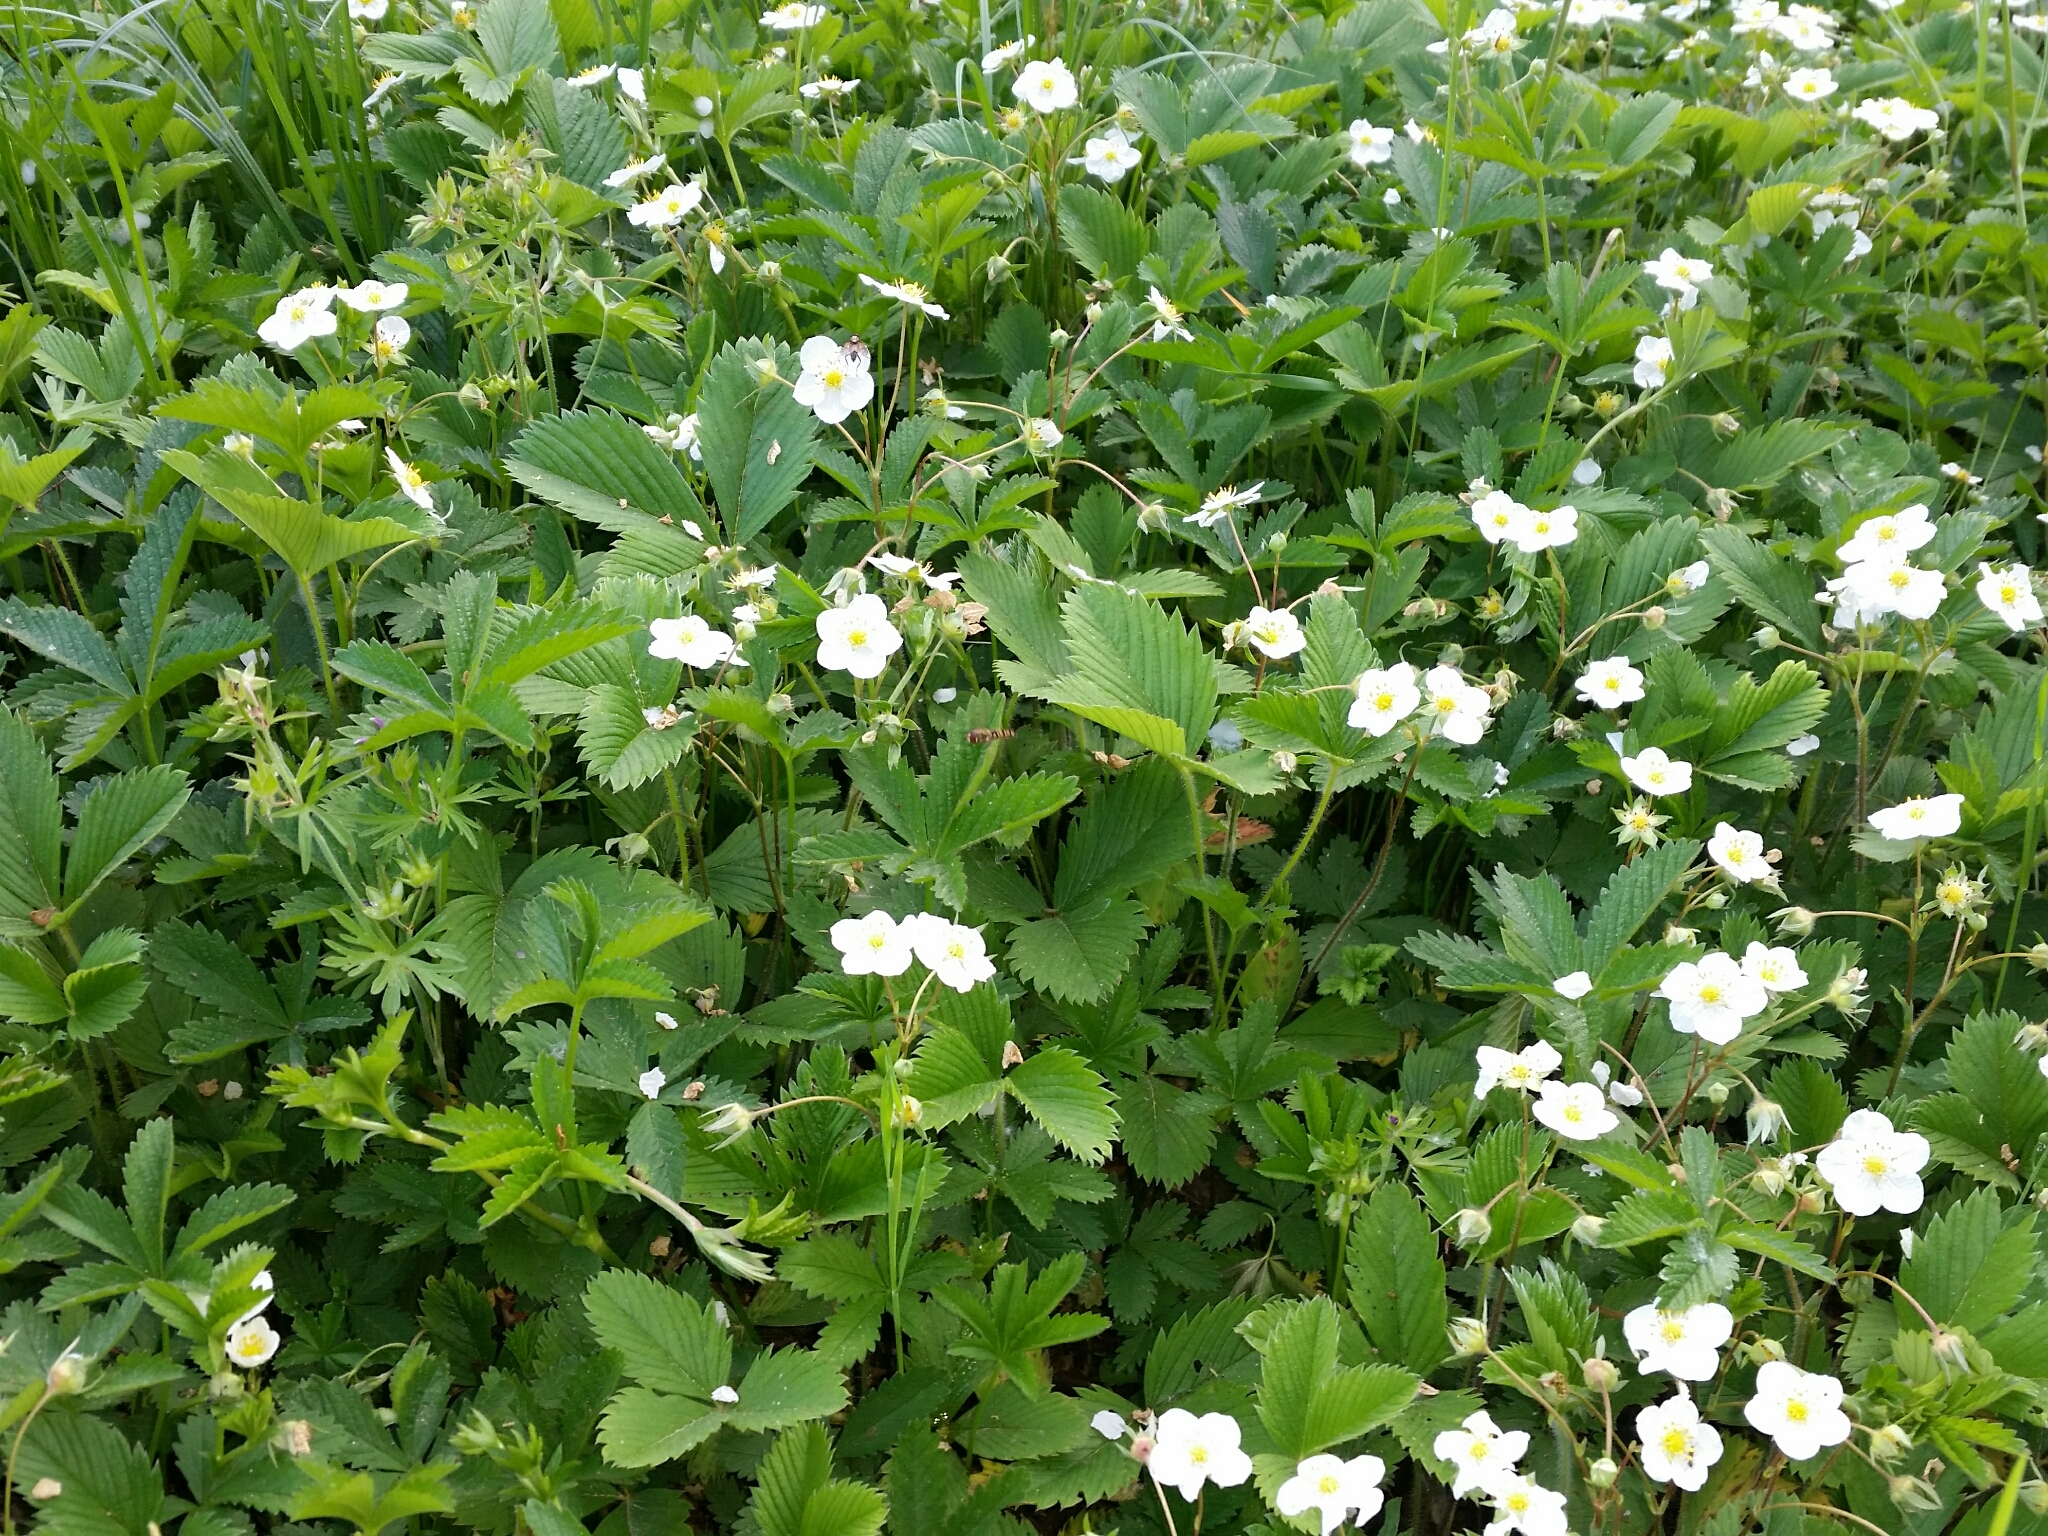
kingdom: Plantae
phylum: Tracheophyta
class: Magnoliopsida
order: Rosales
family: Rosaceae
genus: Fragaria
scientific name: Fragaria vesca
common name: Wild strawberry
